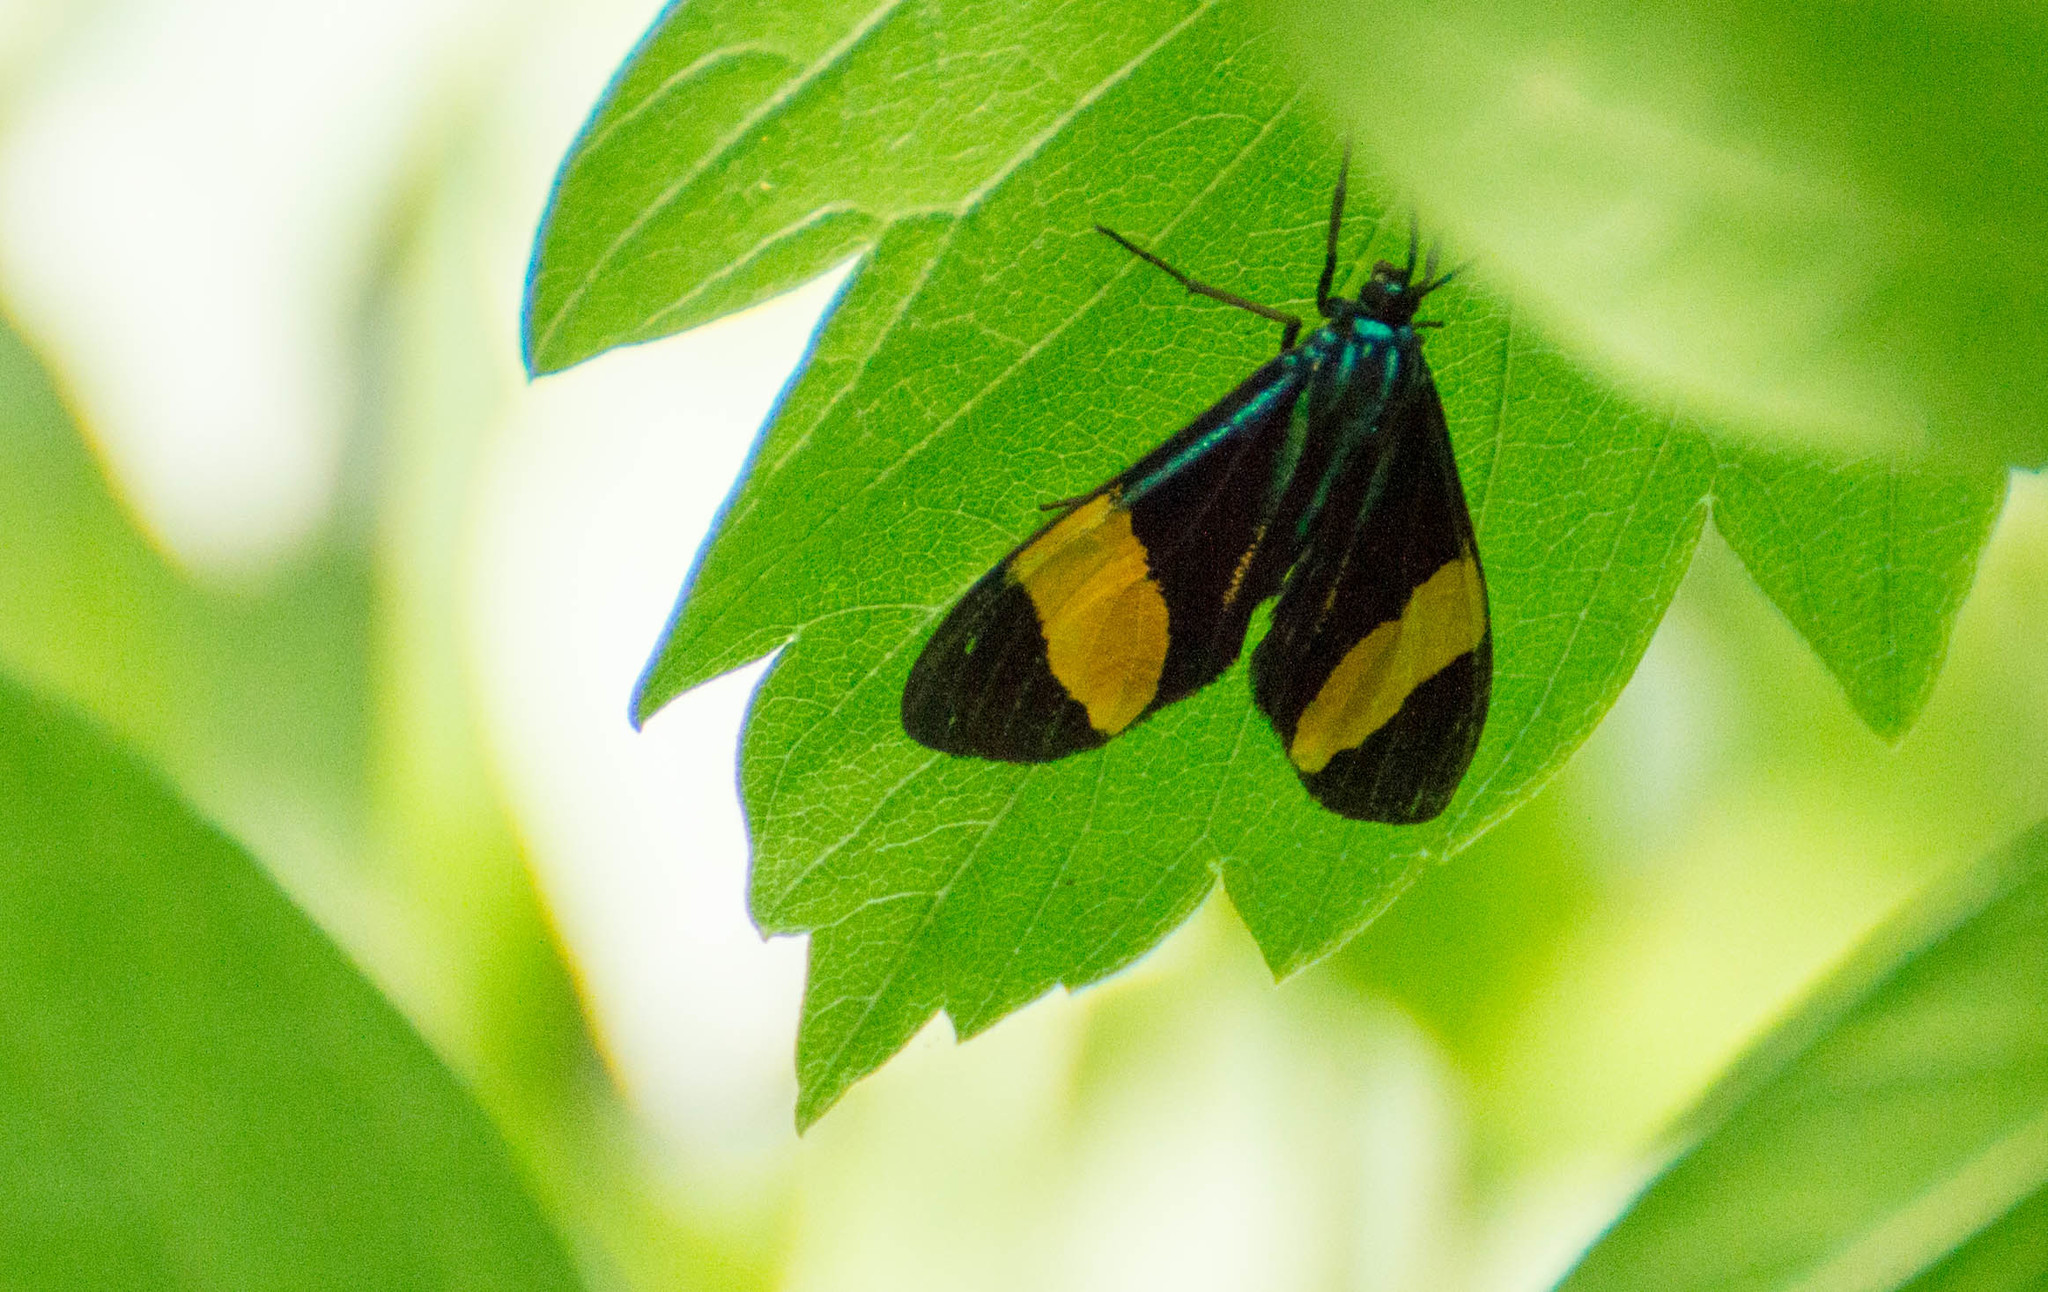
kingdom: Animalia
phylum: Arthropoda
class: Insecta
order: Lepidoptera
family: Erebidae
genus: Cyanopepla
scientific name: Cyanopepla similis
